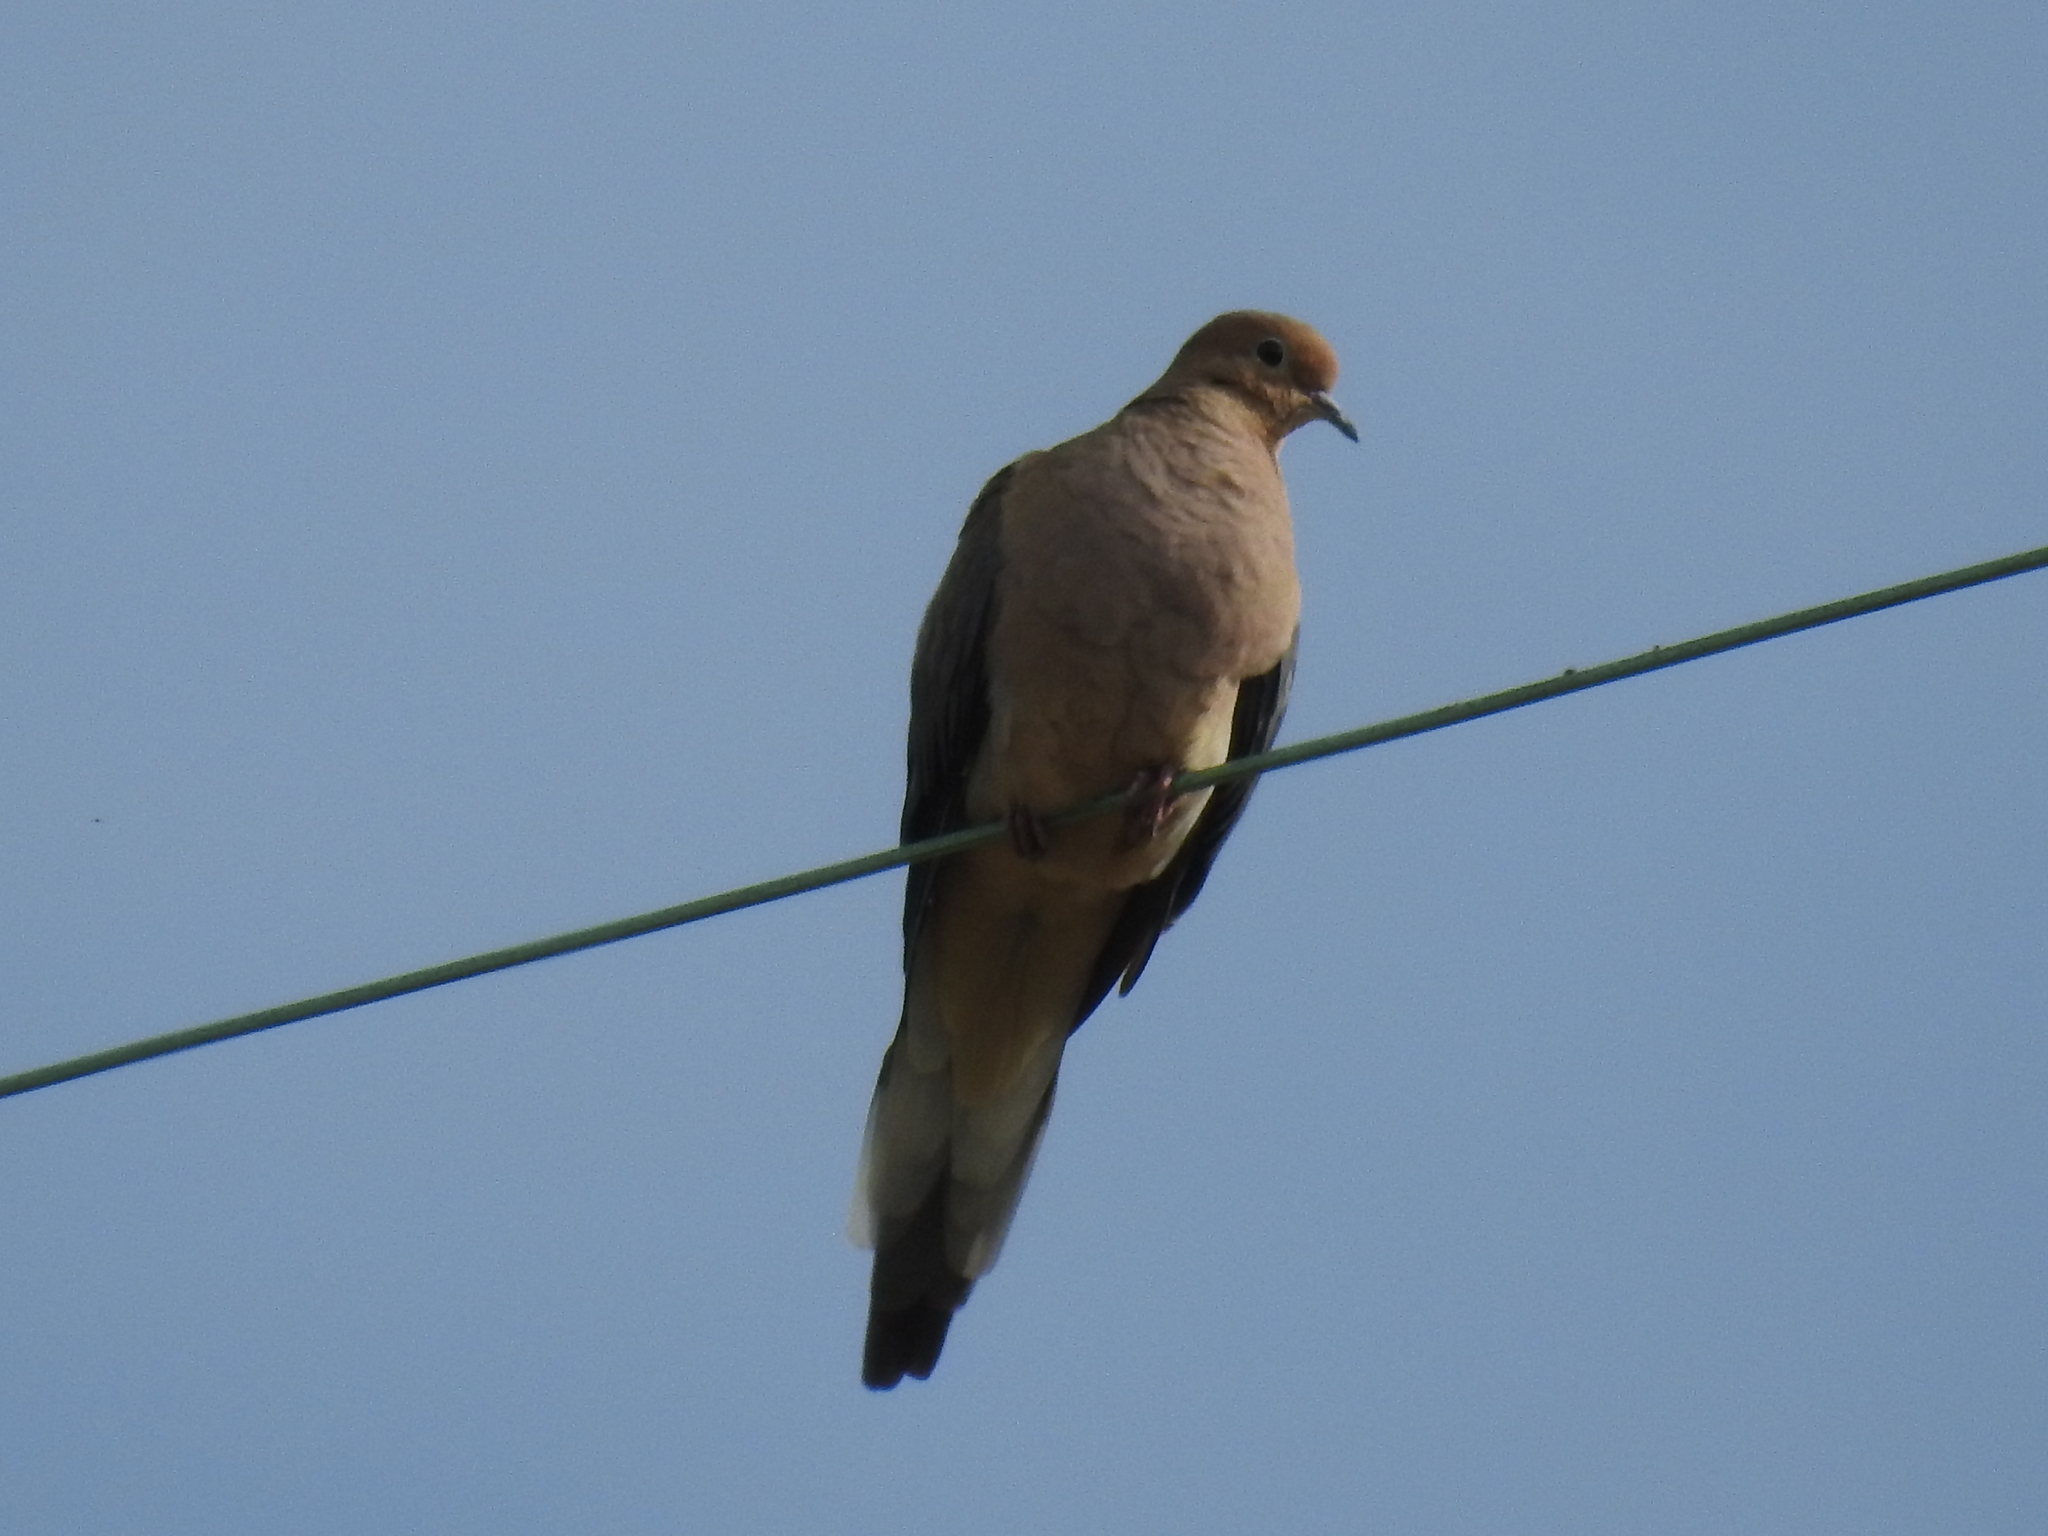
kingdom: Animalia
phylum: Chordata
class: Aves
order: Columbiformes
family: Columbidae
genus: Zenaida
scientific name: Zenaida macroura
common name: Mourning dove
